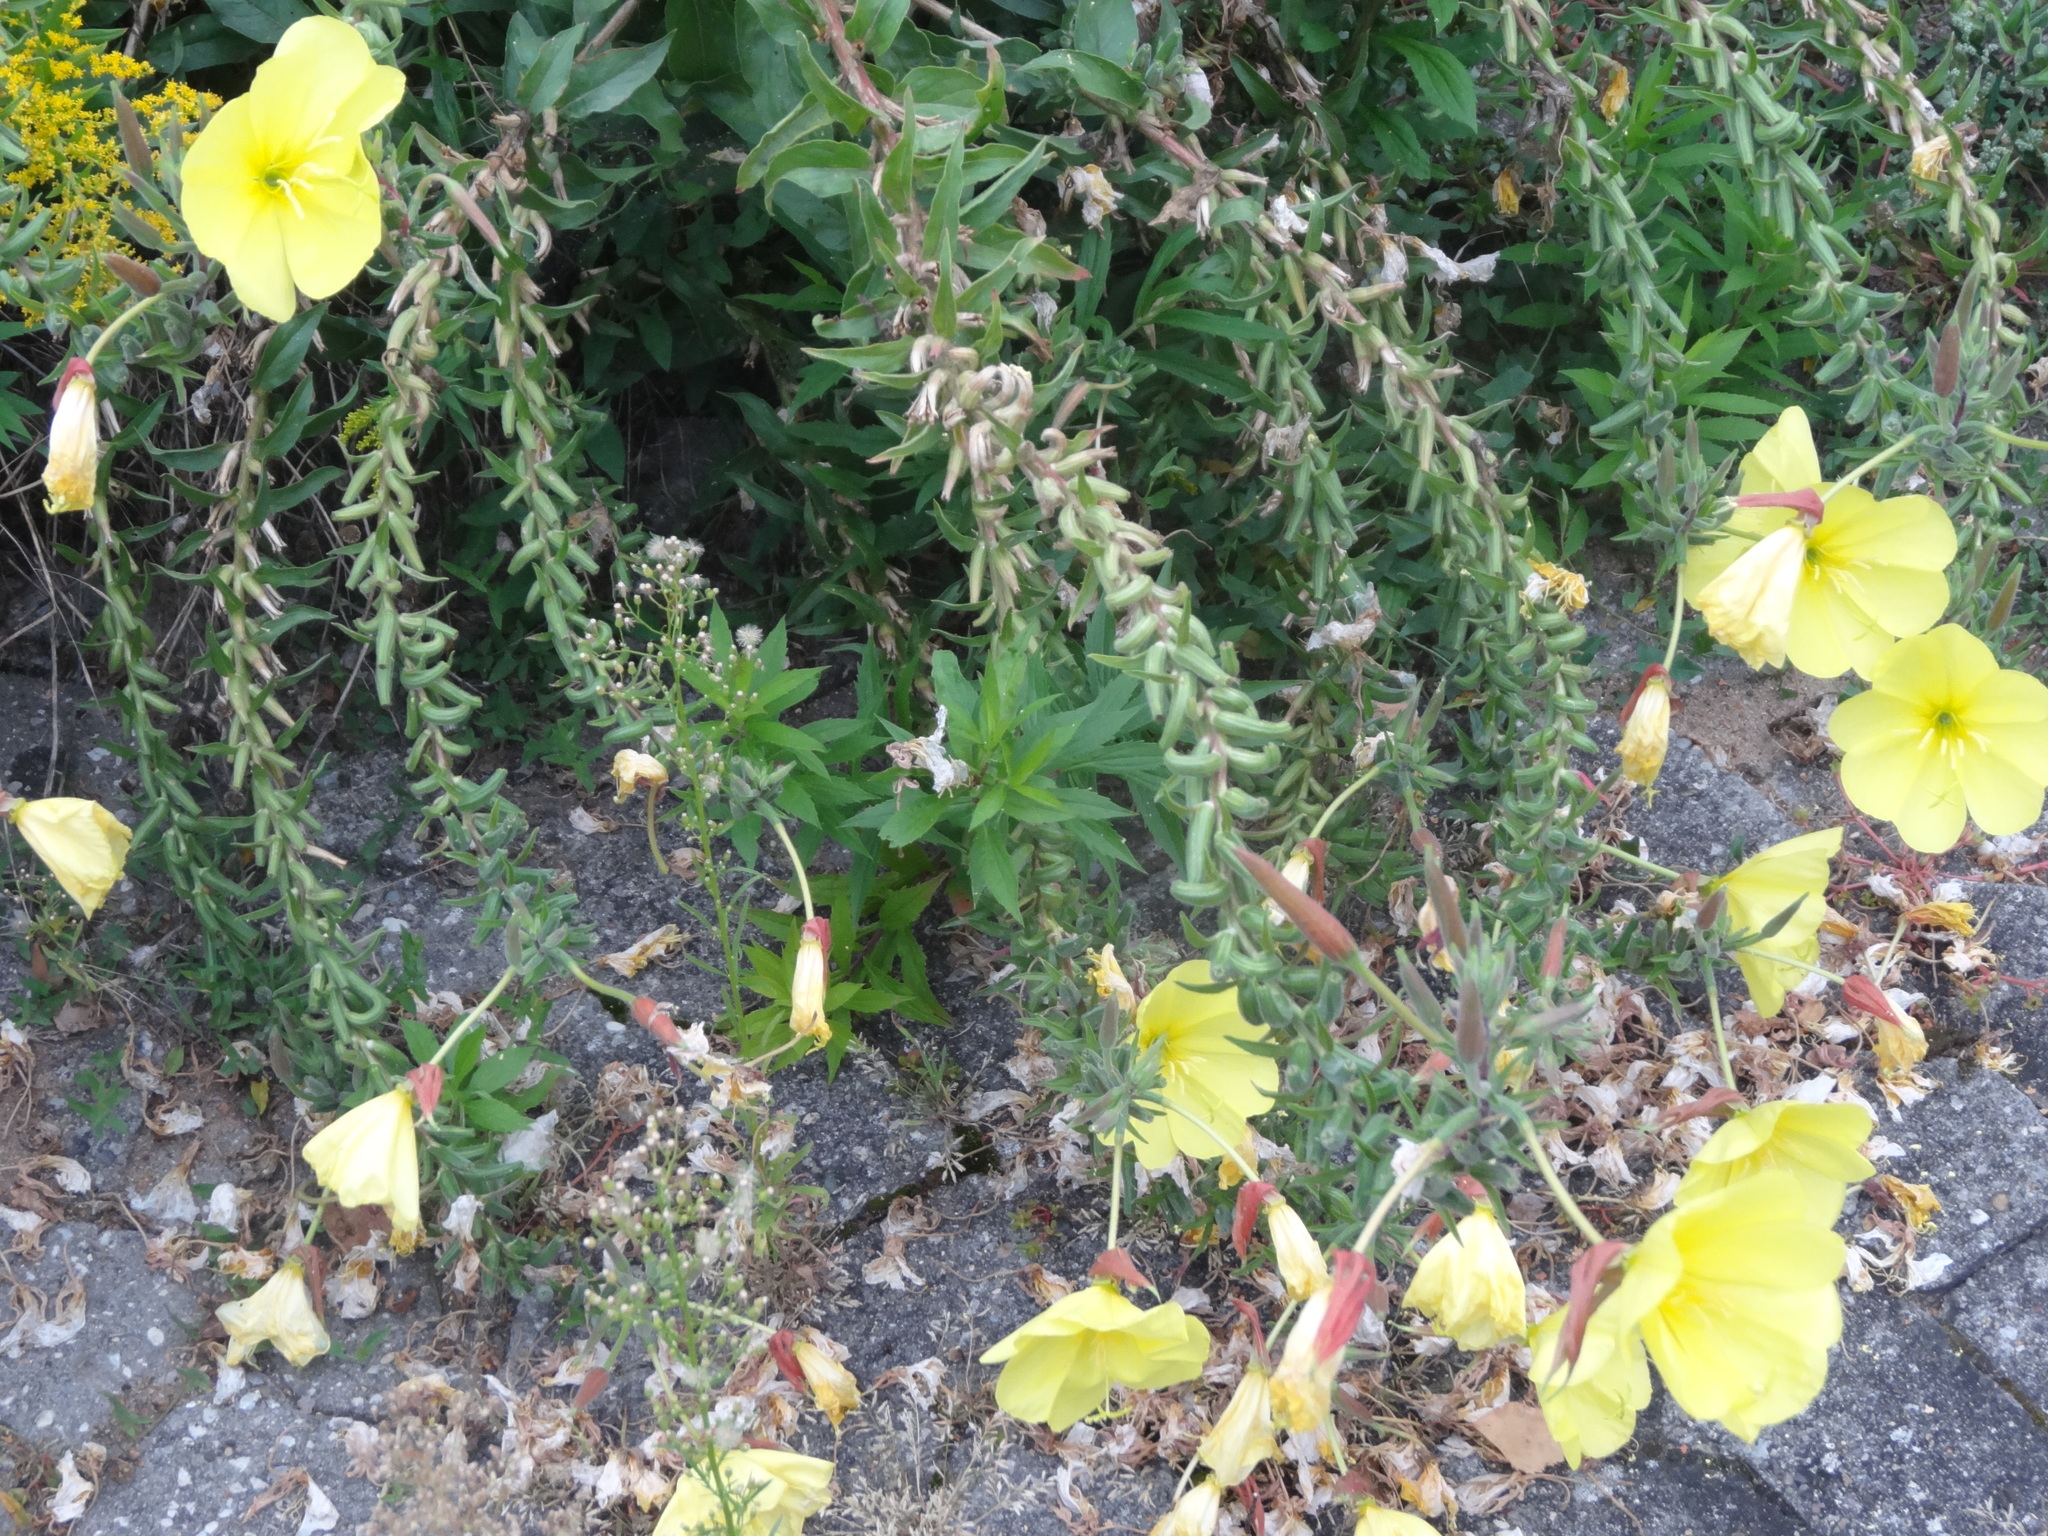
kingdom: Plantae
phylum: Tracheophyta
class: Magnoliopsida
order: Myrtales
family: Onagraceae
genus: Oenothera
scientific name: Oenothera glazioviana
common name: Large-flowered evening-primrose
